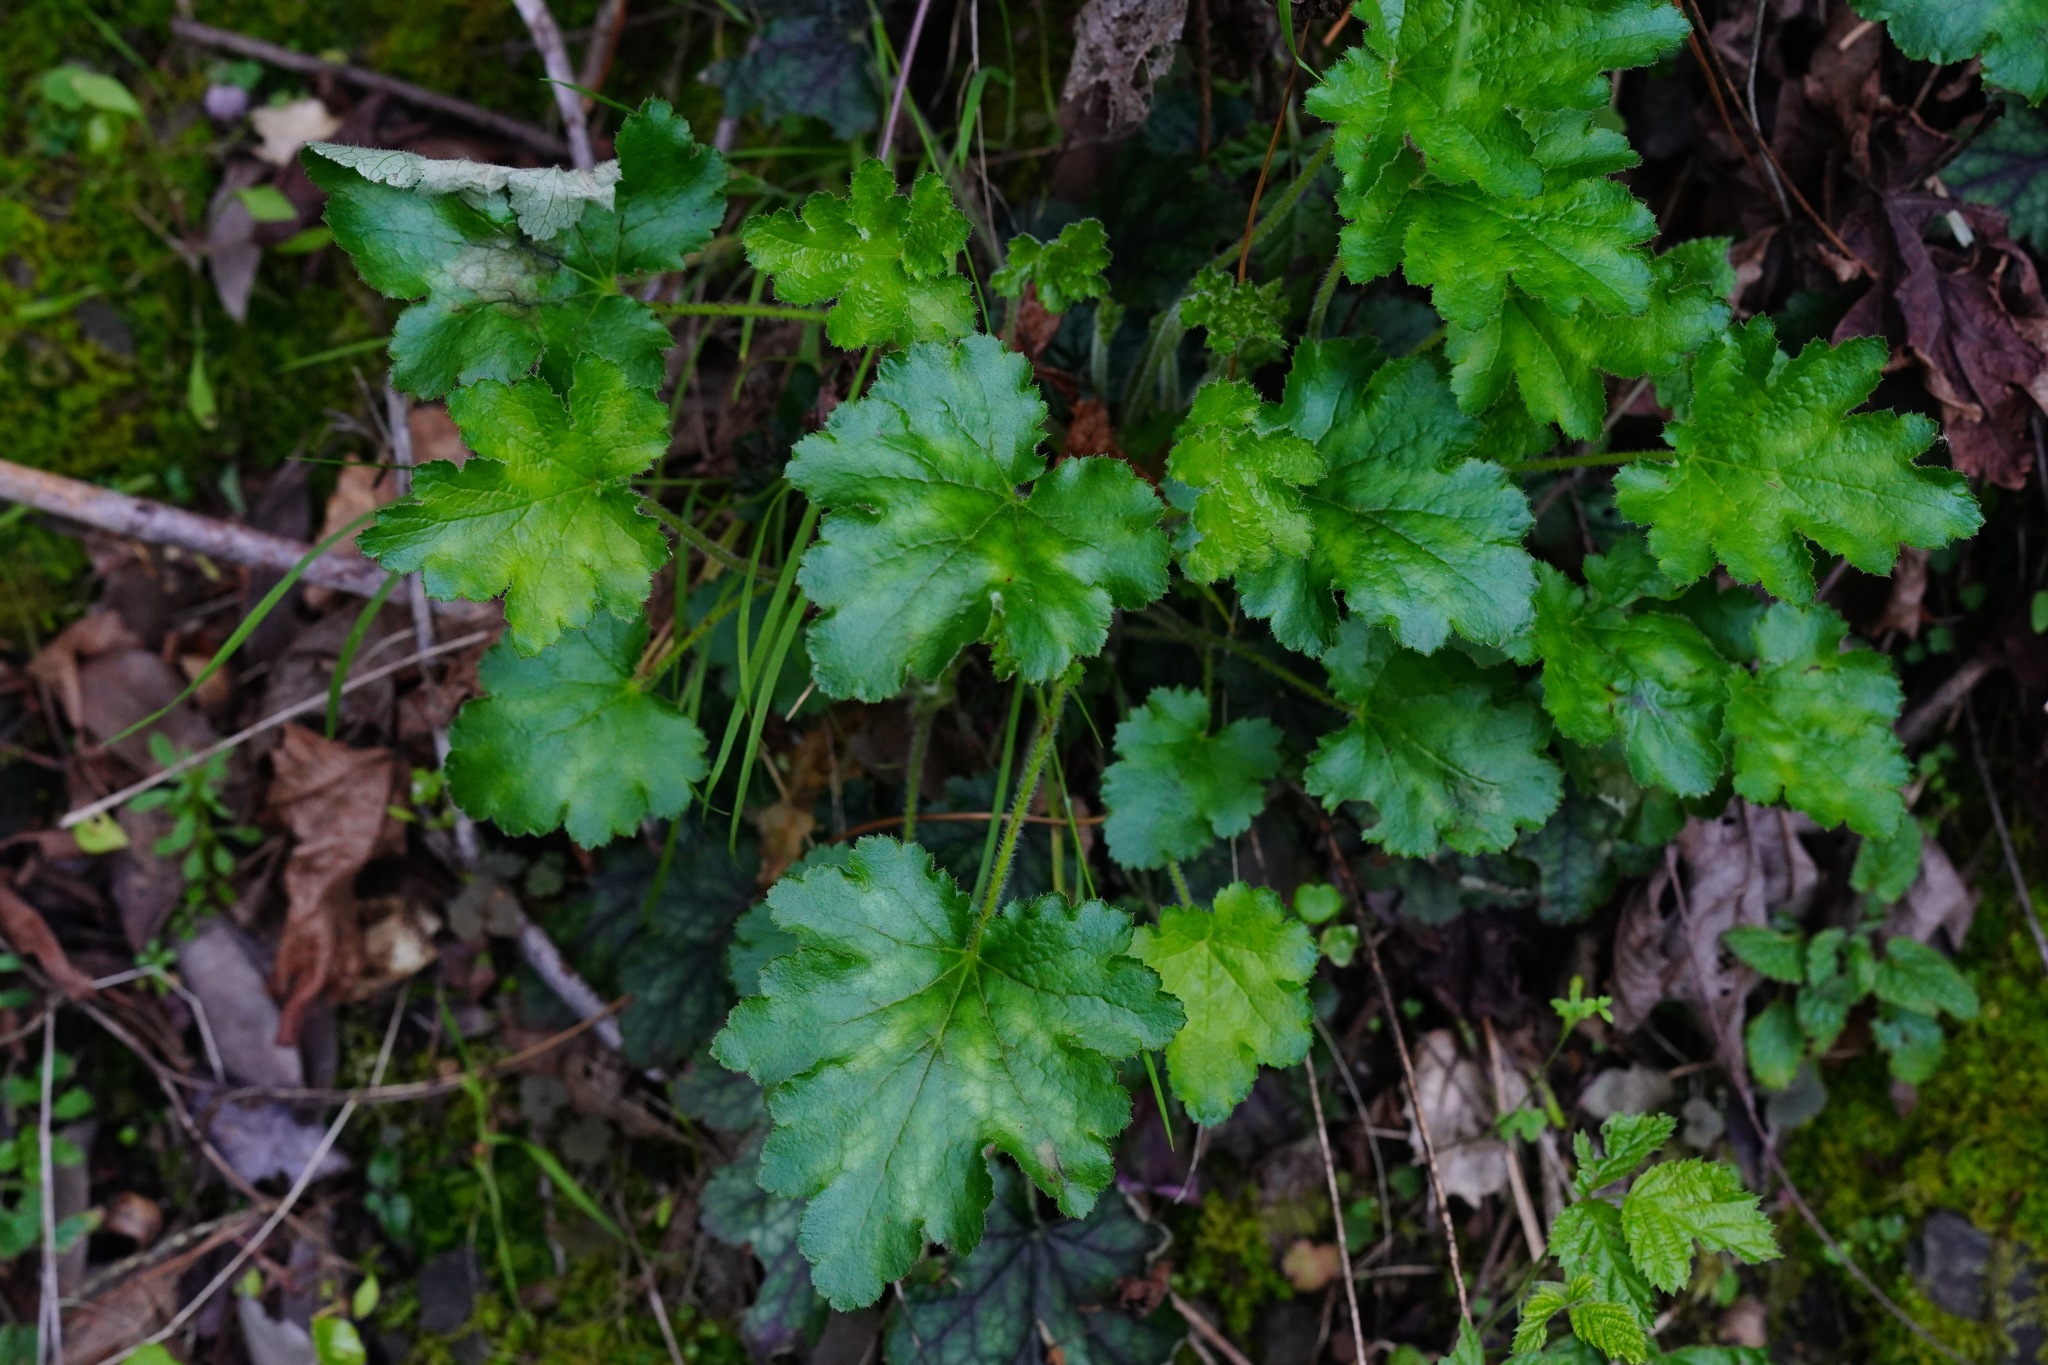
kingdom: Plantae
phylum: Tracheophyta
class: Magnoliopsida
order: Saxifragales
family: Saxifragaceae
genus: Heuchera
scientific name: Heuchera micrantha
